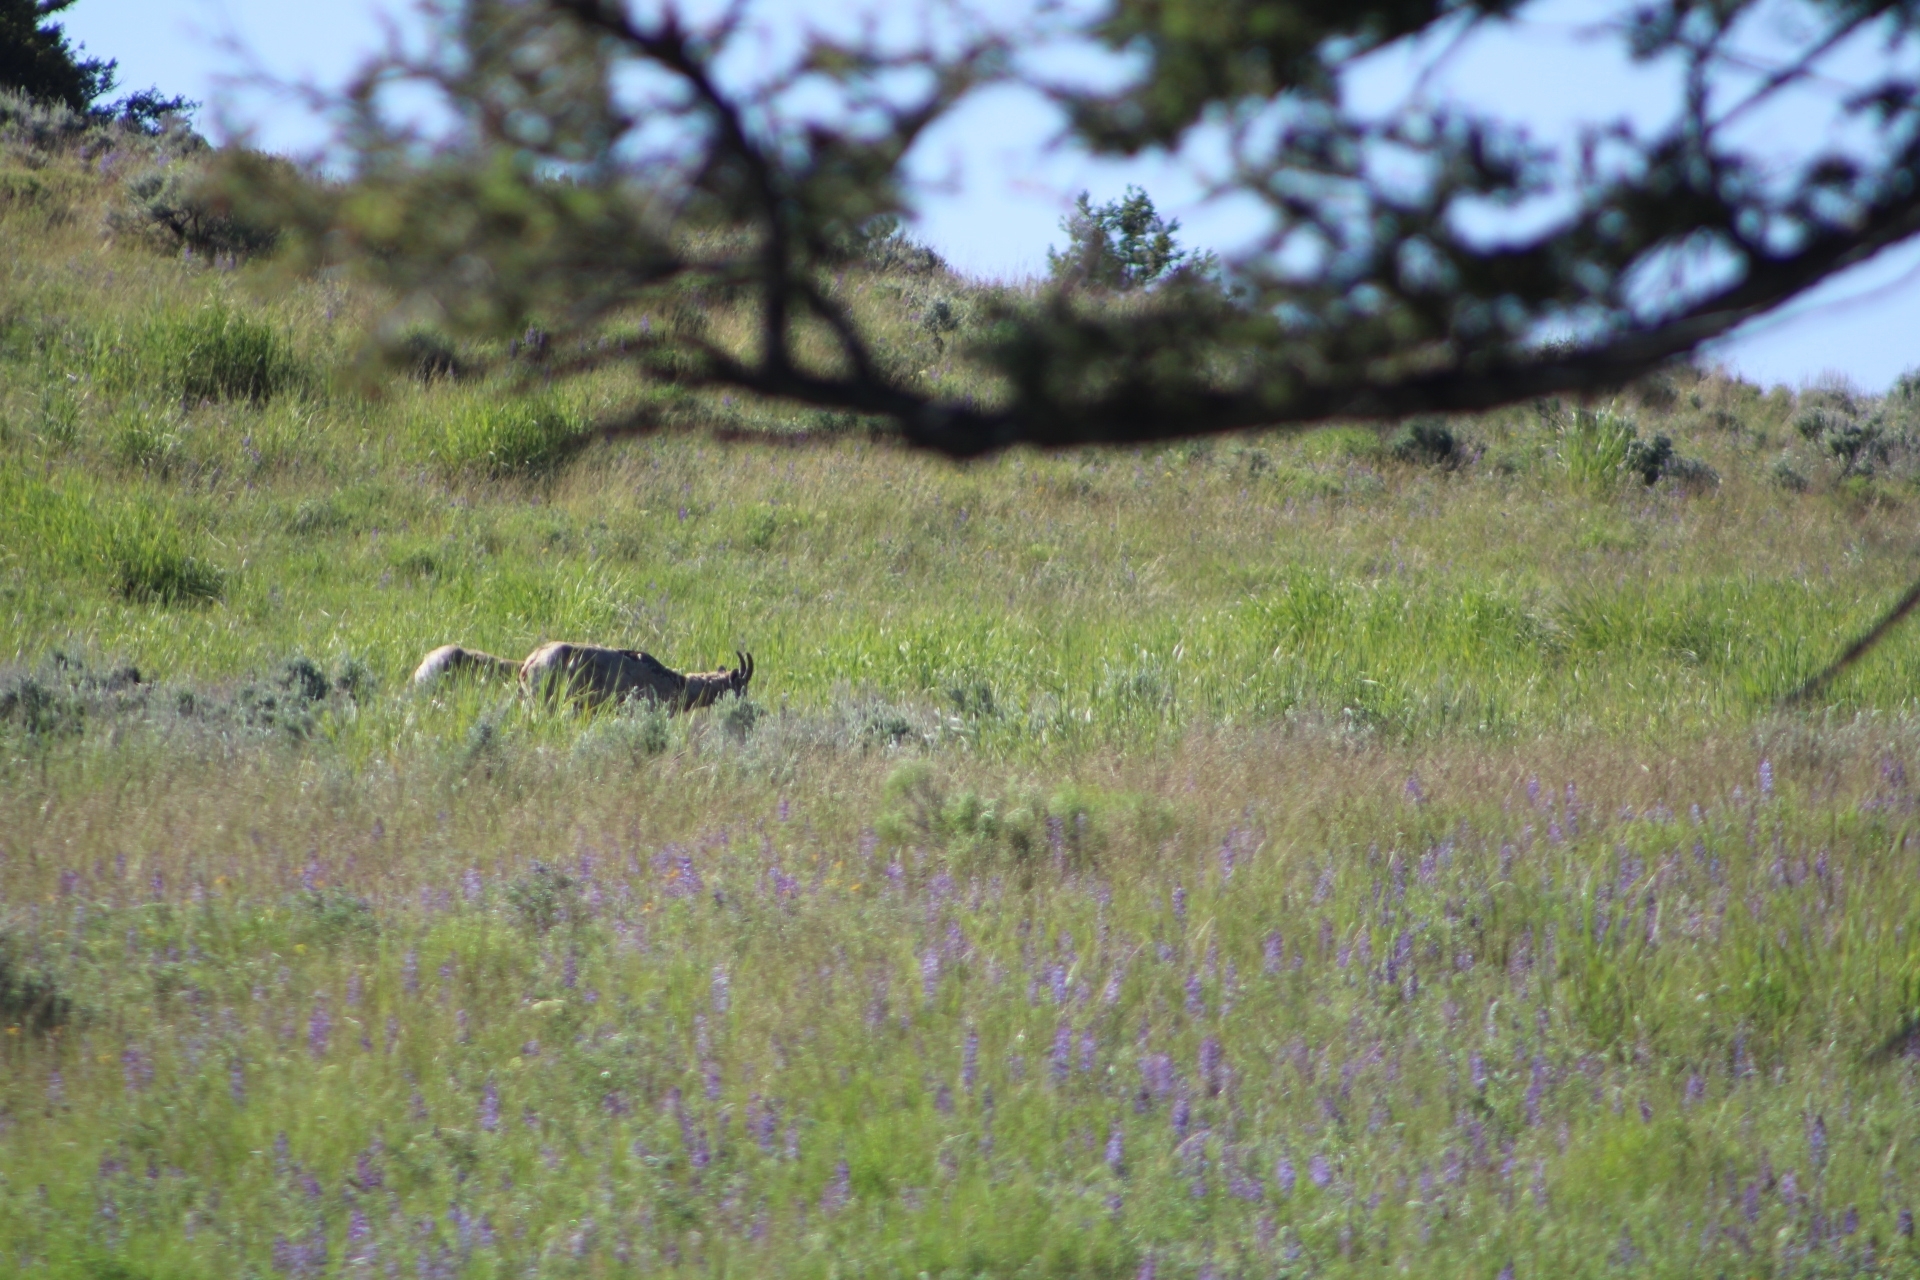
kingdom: Animalia
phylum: Chordata
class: Mammalia
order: Artiodactyla
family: Bovidae
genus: Ovis
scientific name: Ovis canadensis
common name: Bighorn sheep
